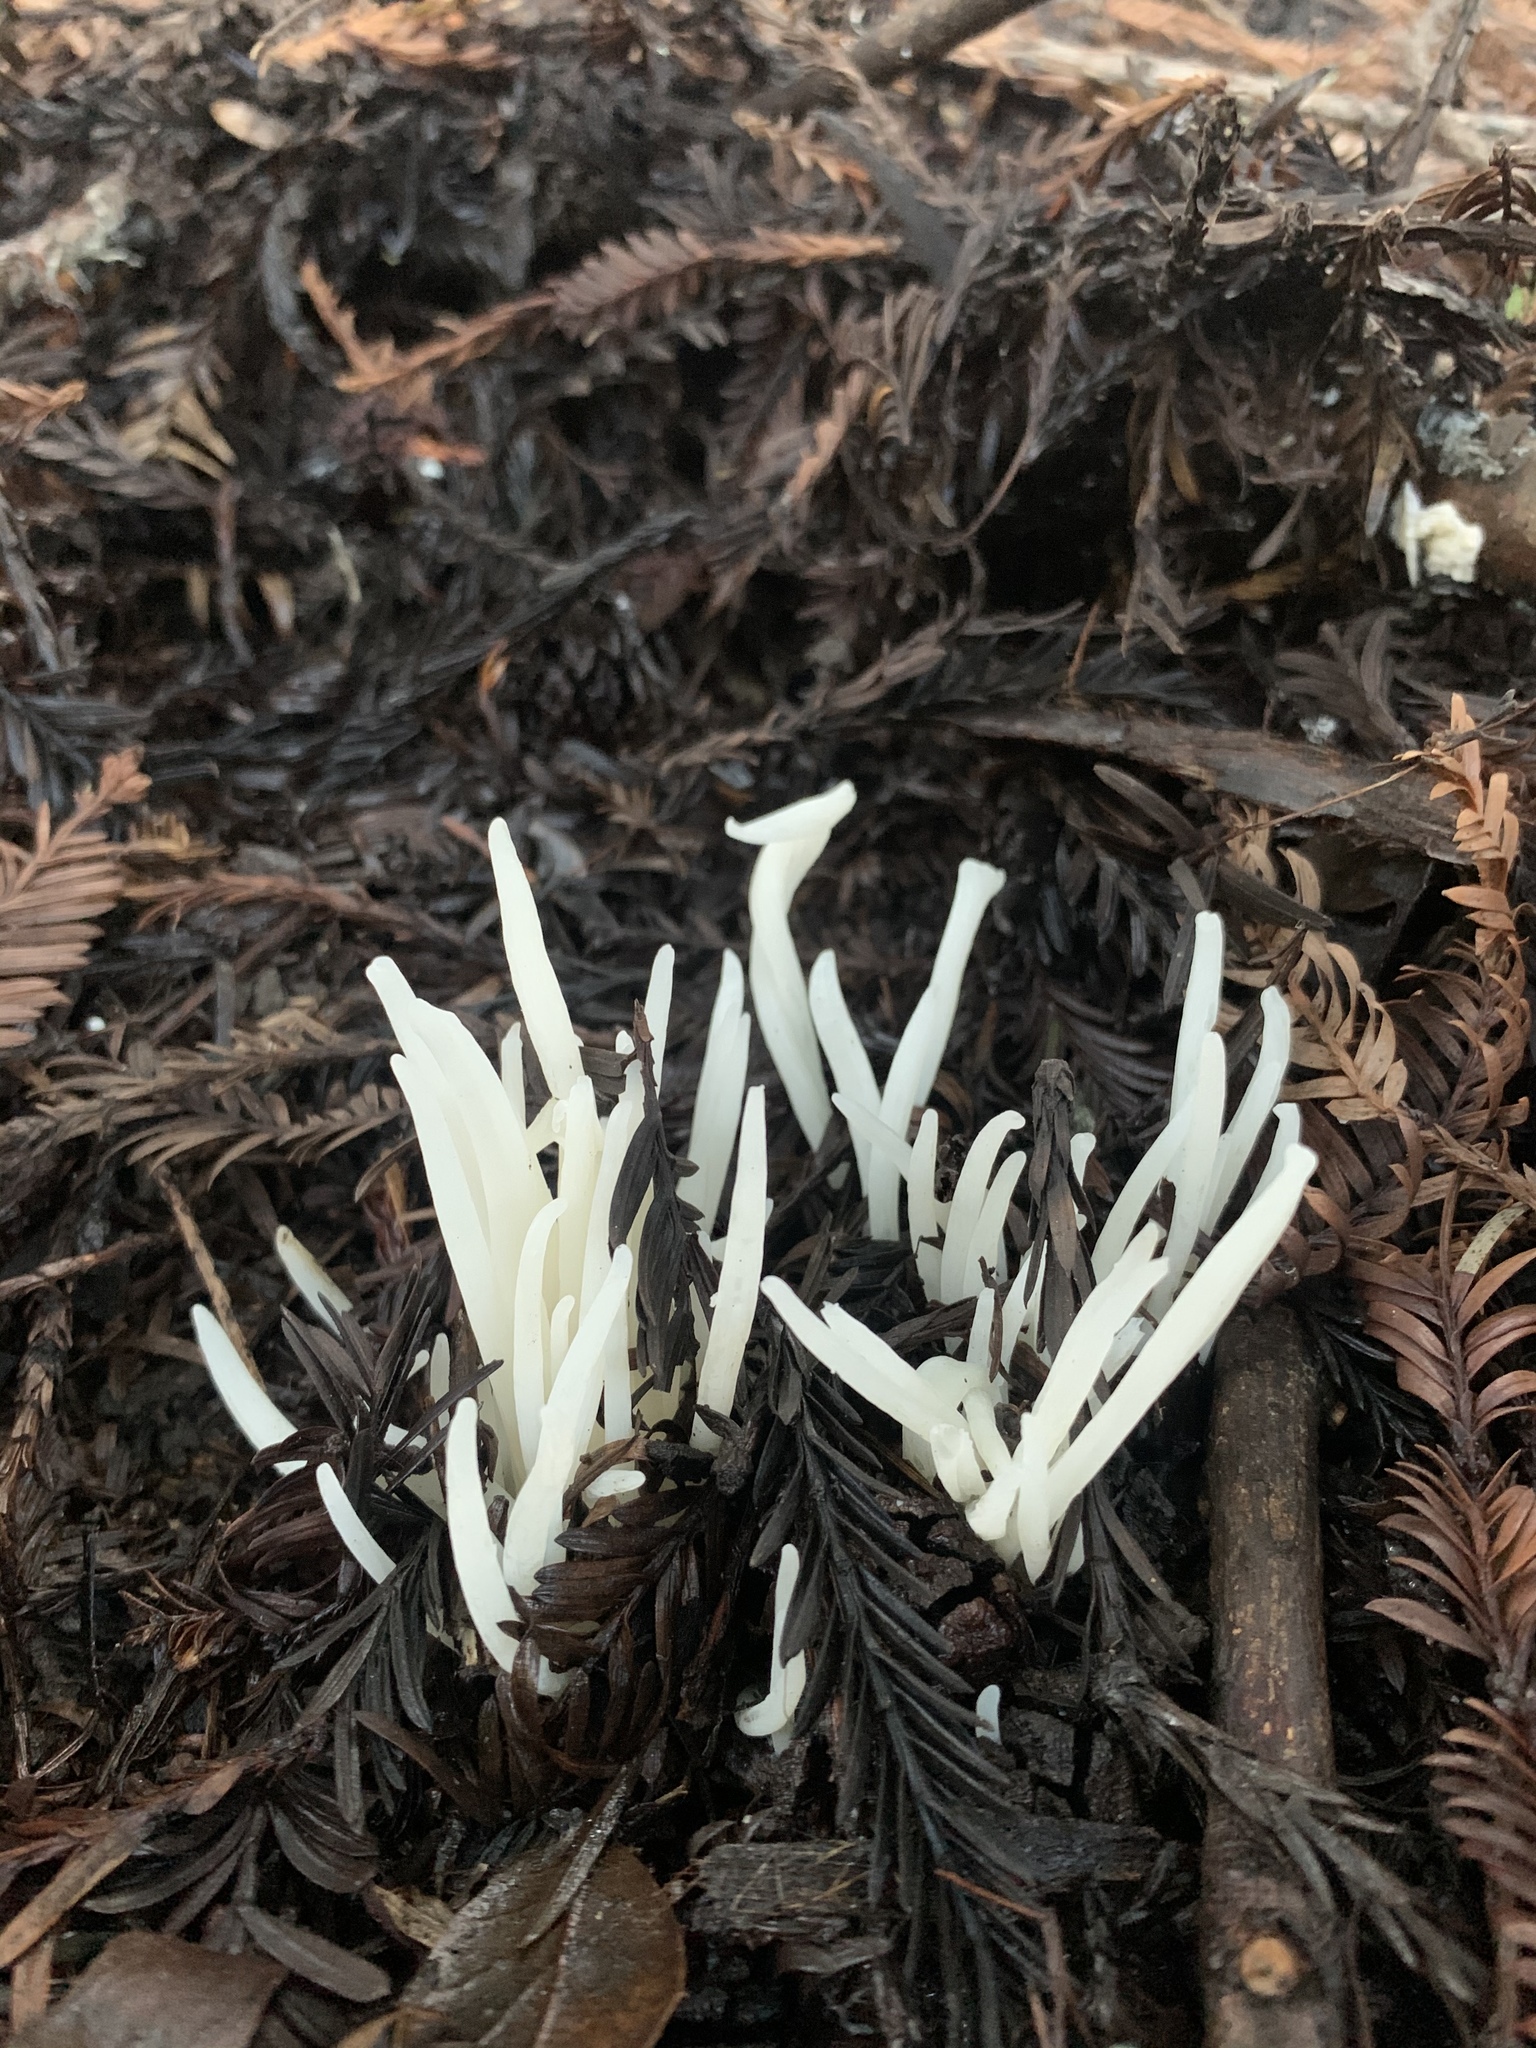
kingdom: Fungi
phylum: Basidiomycota
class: Agaricomycetes
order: Agaricales
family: Clavariaceae
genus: Clavaria
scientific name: Clavaria fragilis
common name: White spindles
